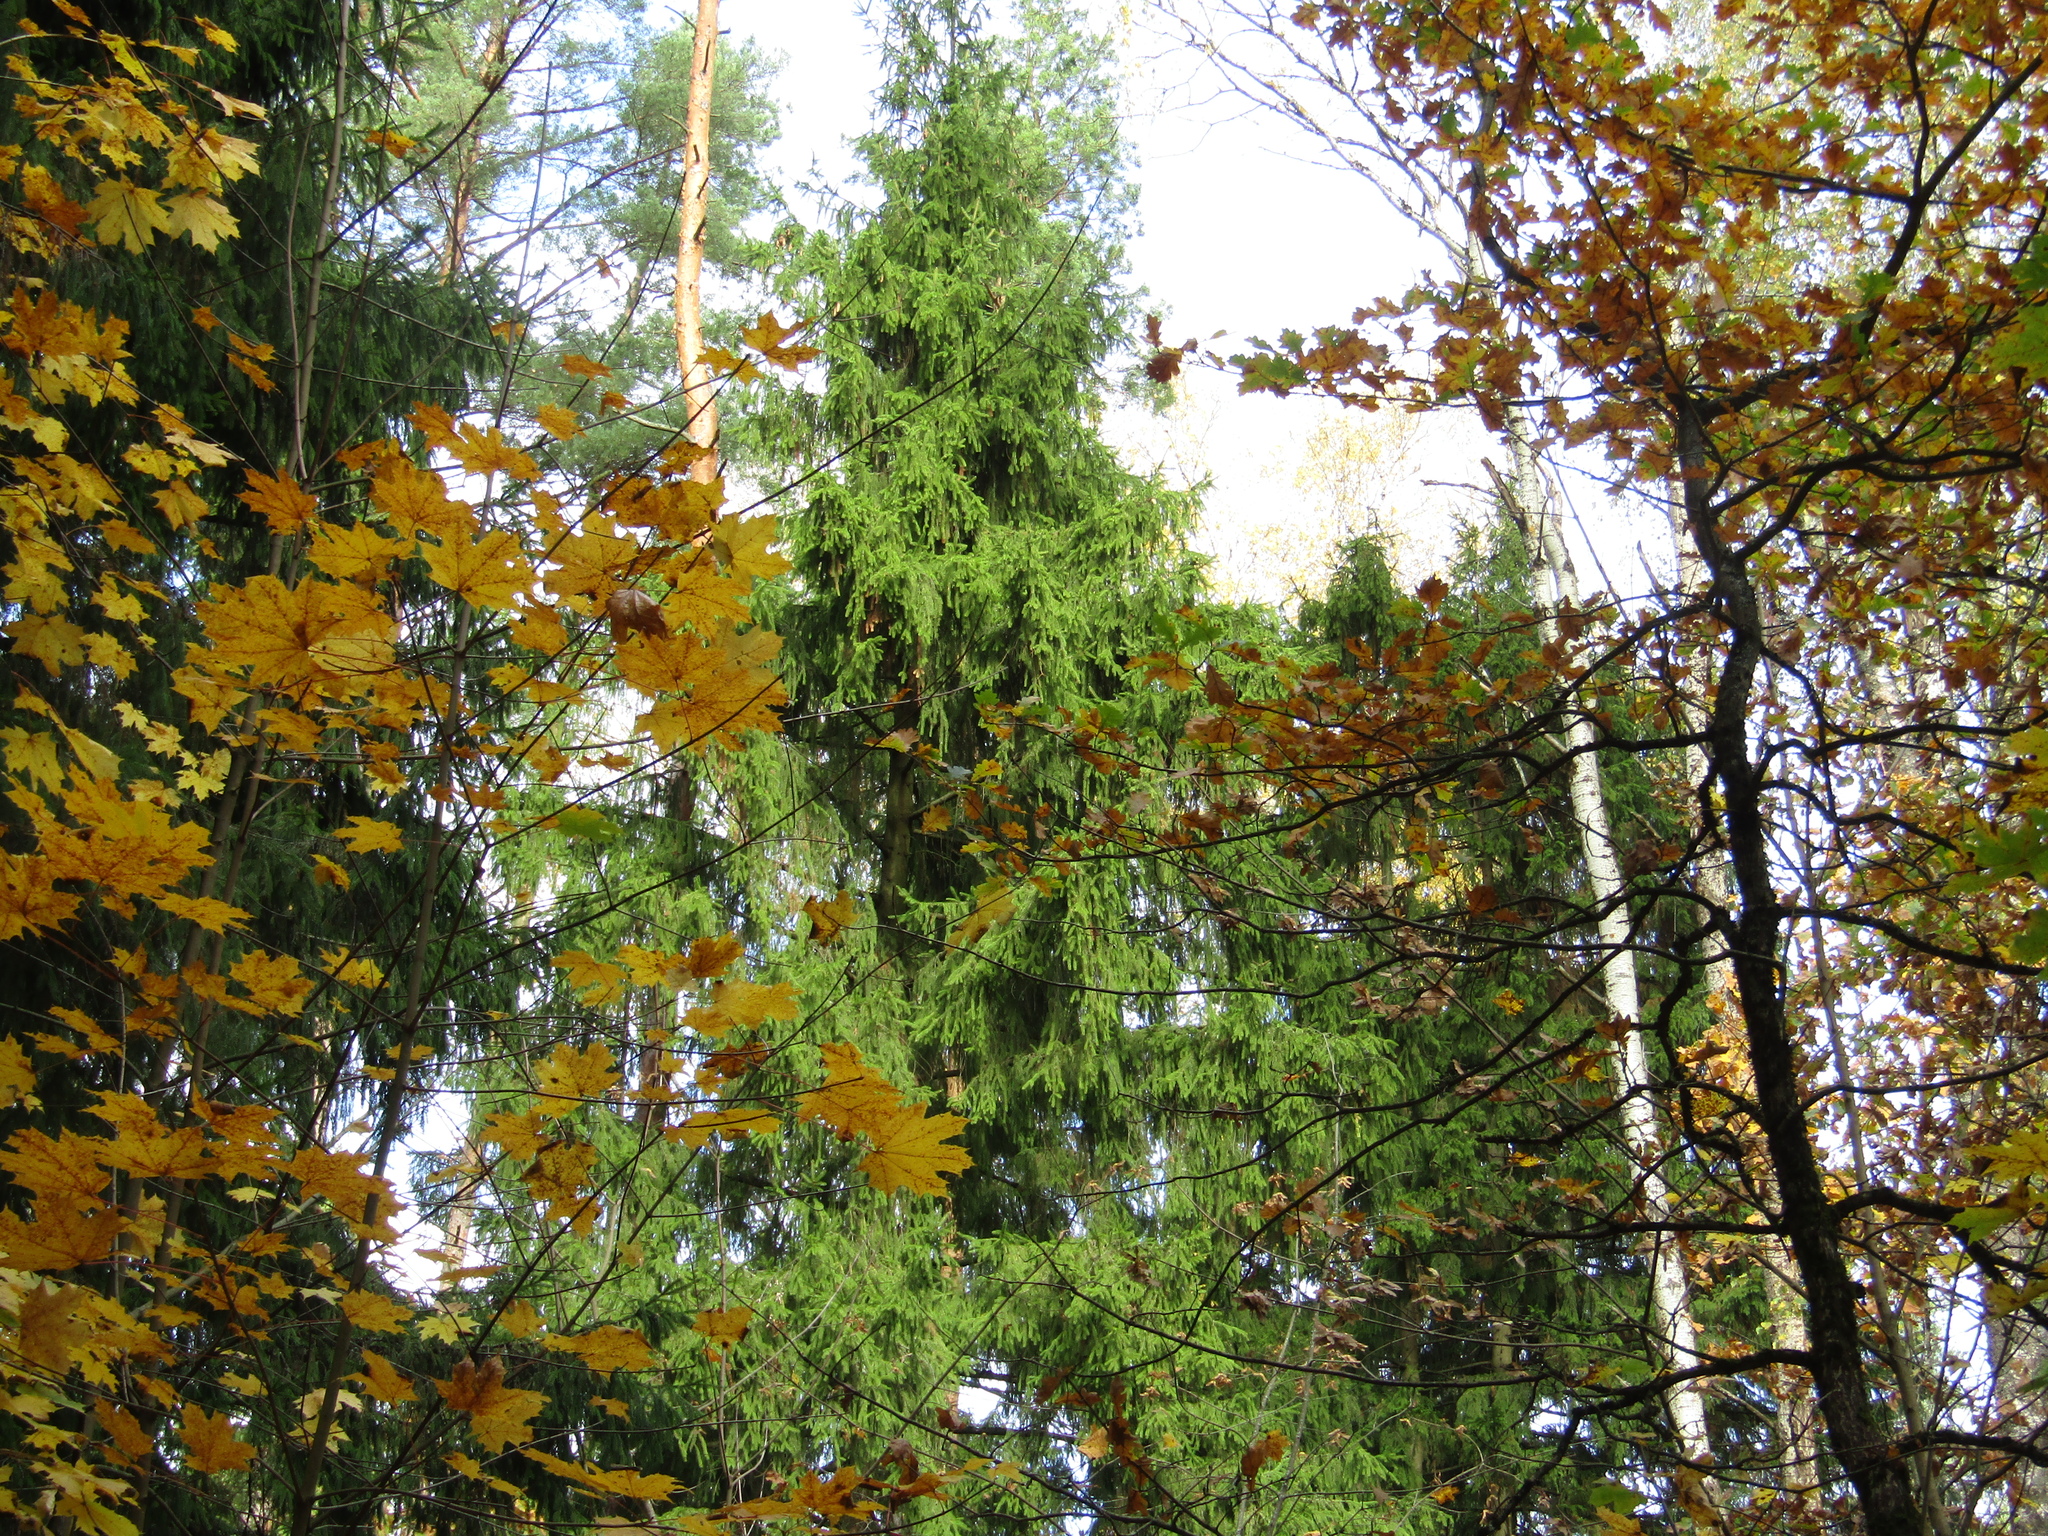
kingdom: Plantae
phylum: Tracheophyta
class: Pinopsida
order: Pinales
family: Pinaceae
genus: Picea
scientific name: Picea abies
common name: Norway spruce
